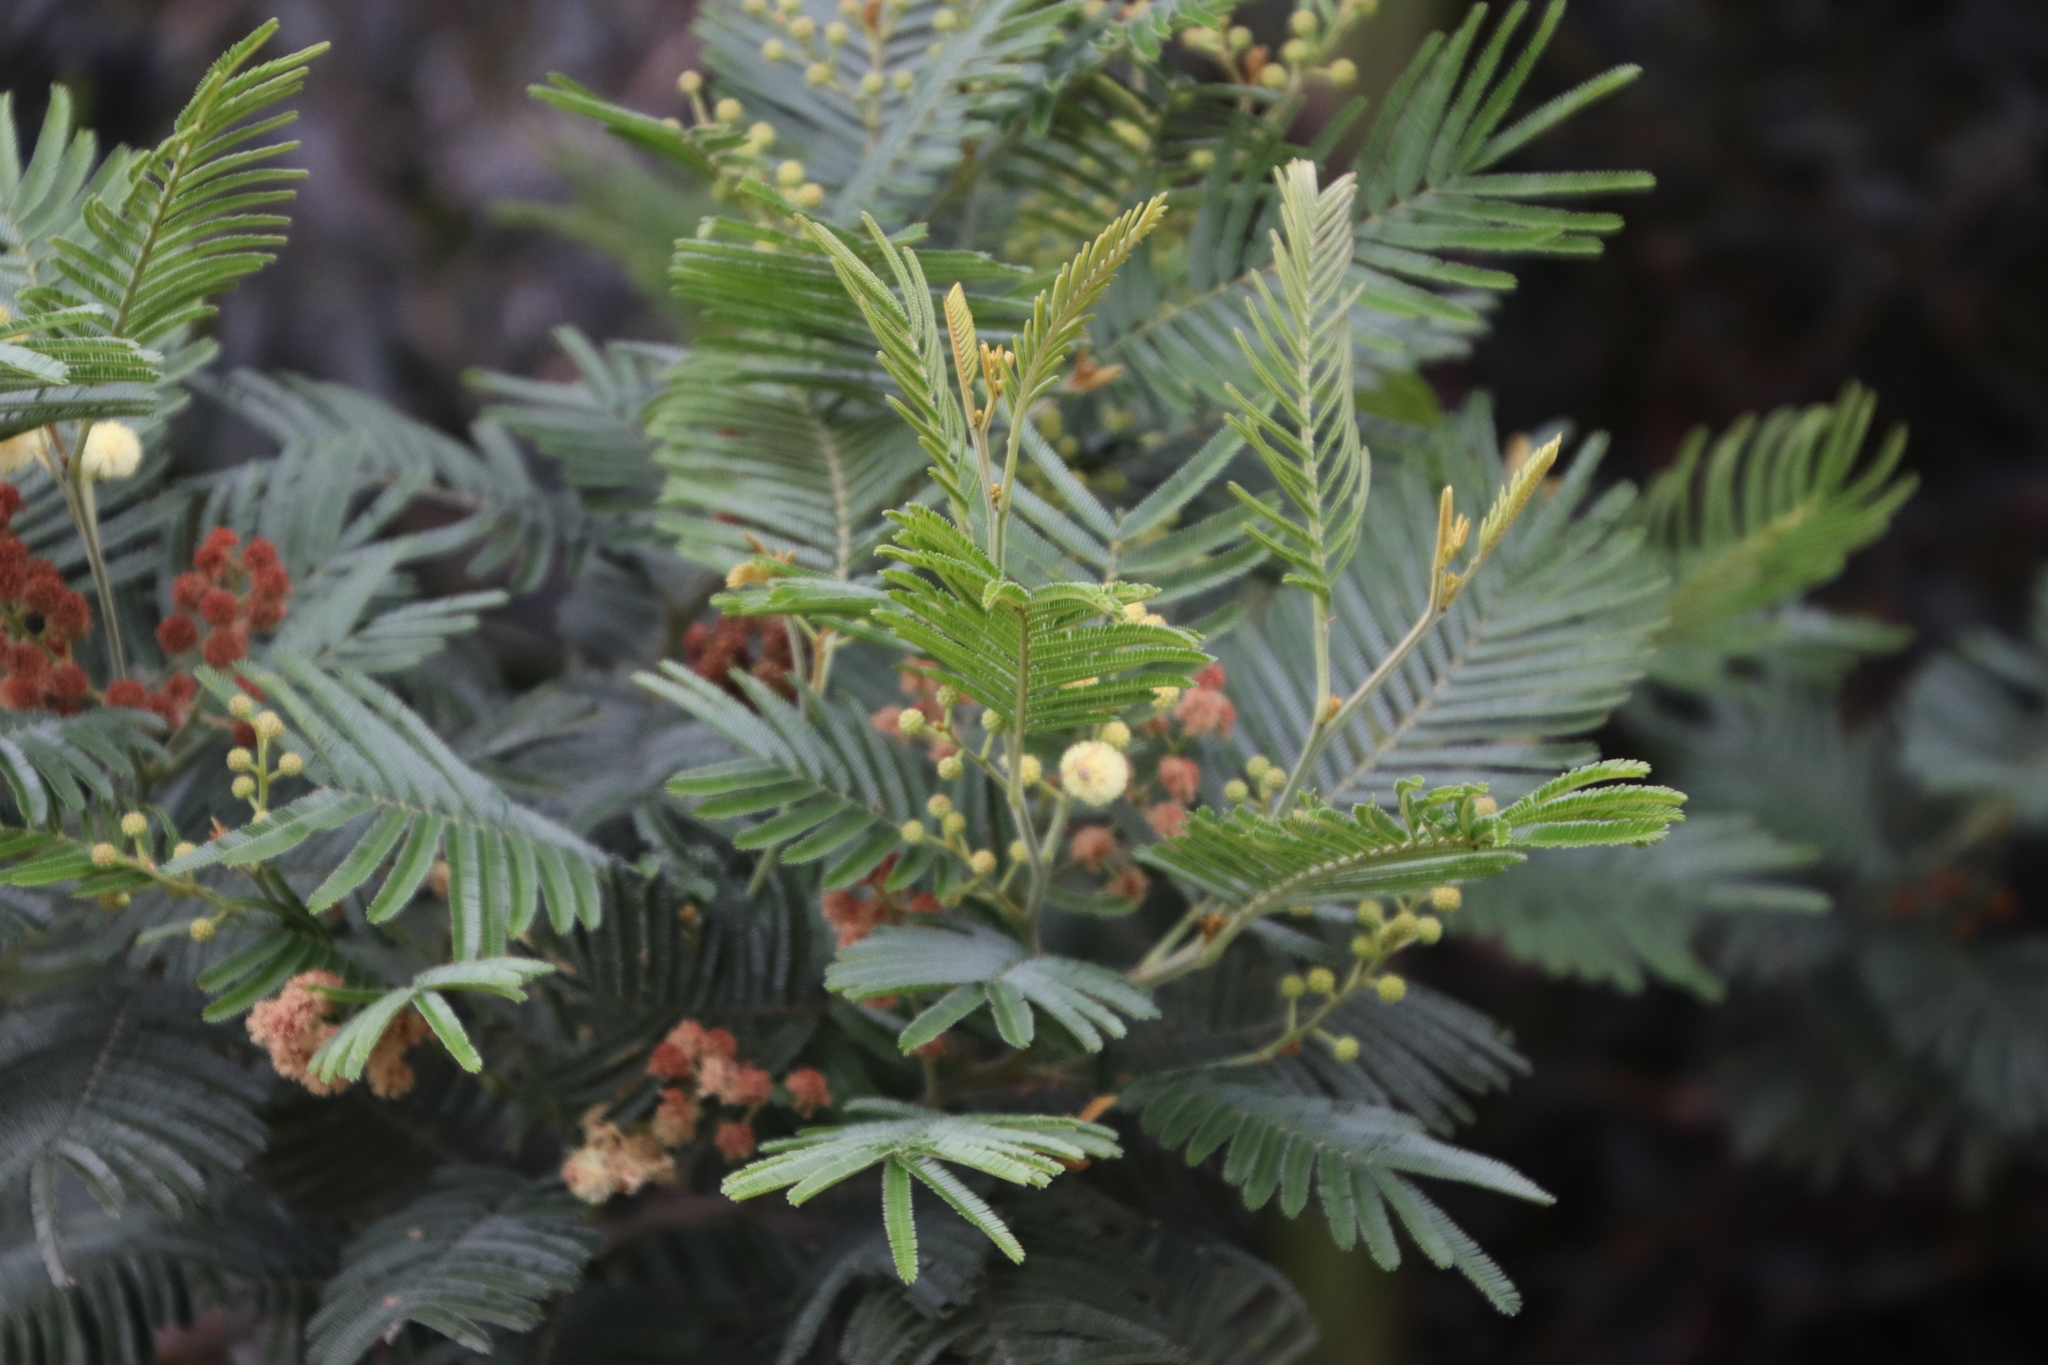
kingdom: Plantae
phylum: Tracheophyta
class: Magnoliopsida
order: Fabales
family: Fabaceae
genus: Acacia
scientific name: Acacia mearnsii
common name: Black wattle
